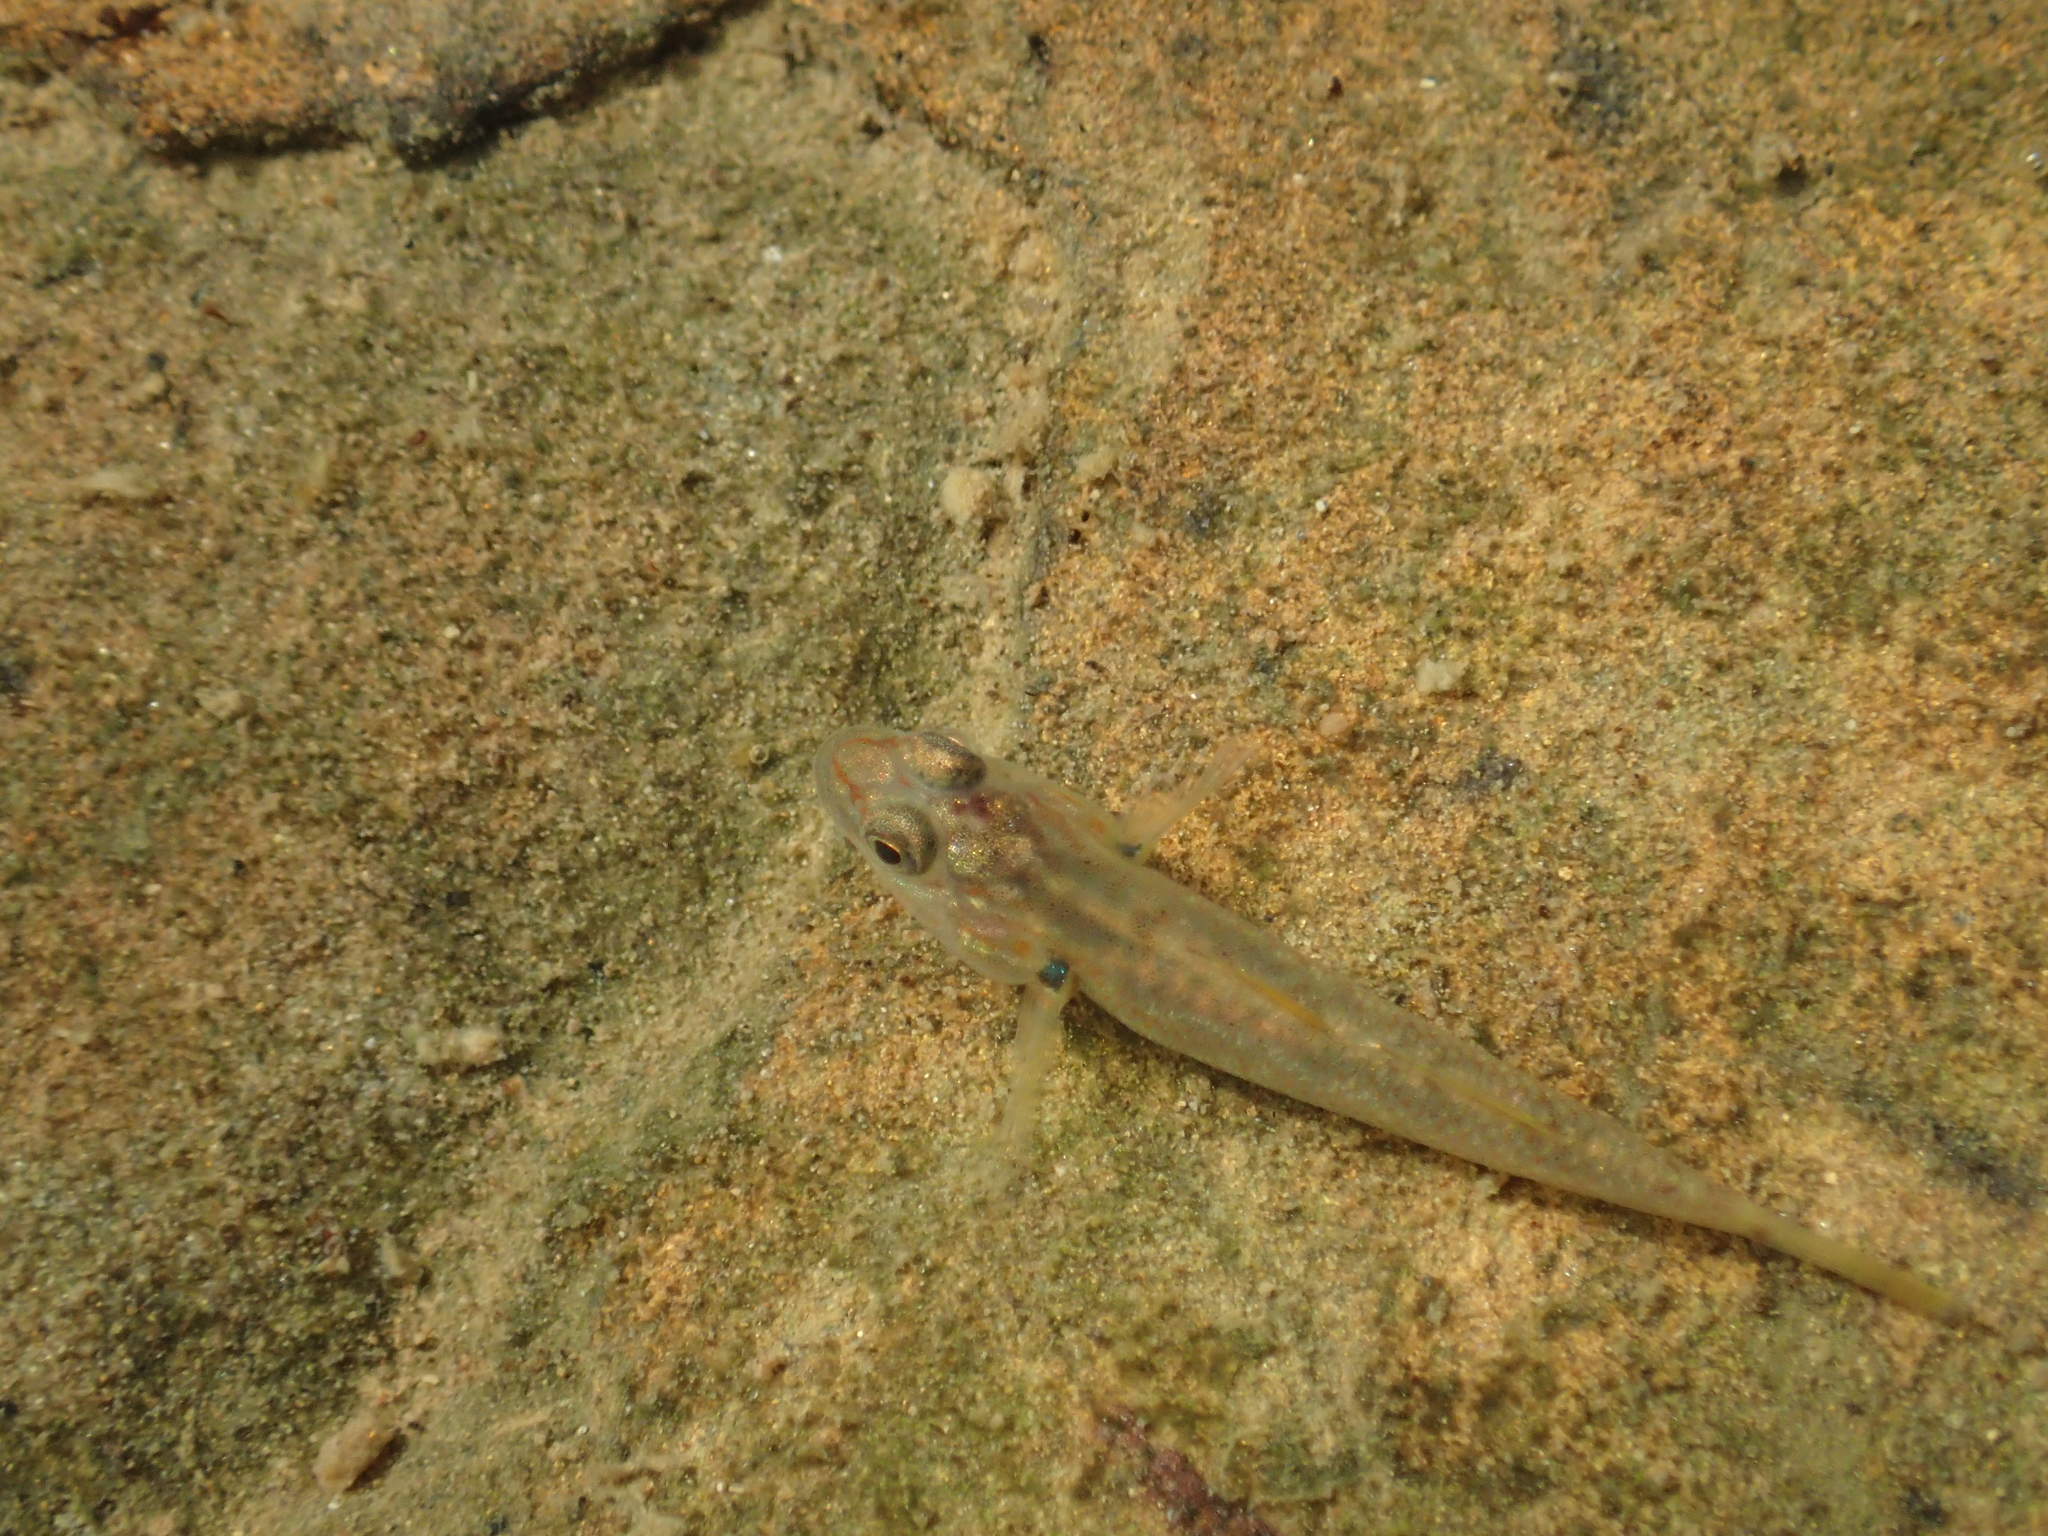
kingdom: Animalia
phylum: Chordata
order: Perciformes
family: Gobiidae
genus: Rhinogobius
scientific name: Rhinogobius candidianus
